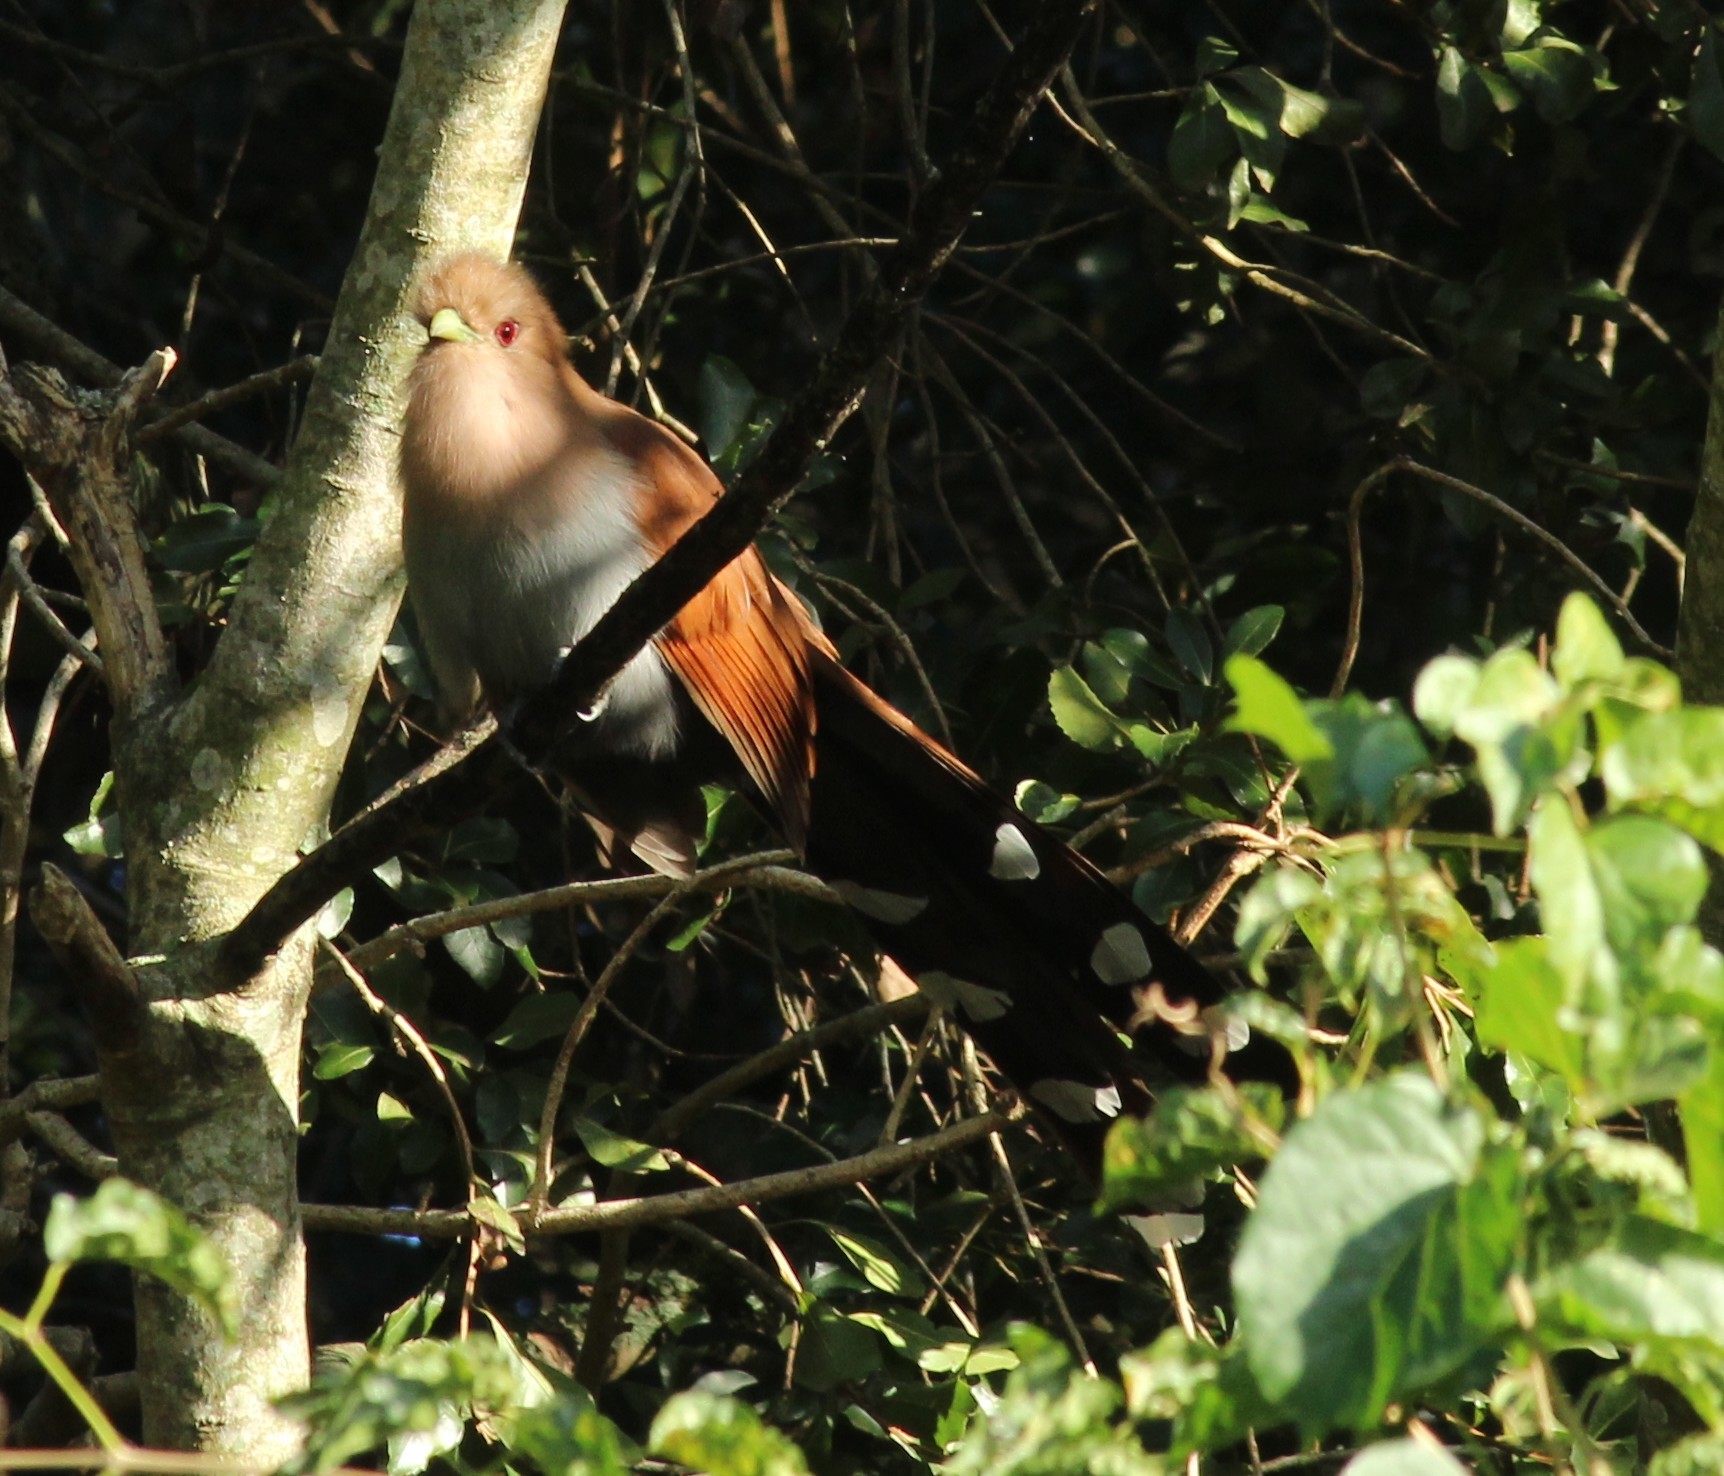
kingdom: Animalia
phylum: Chordata
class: Aves
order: Cuculiformes
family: Cuculidae
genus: Piaya
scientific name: Piaya cayana
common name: Squirrel cuckoo
